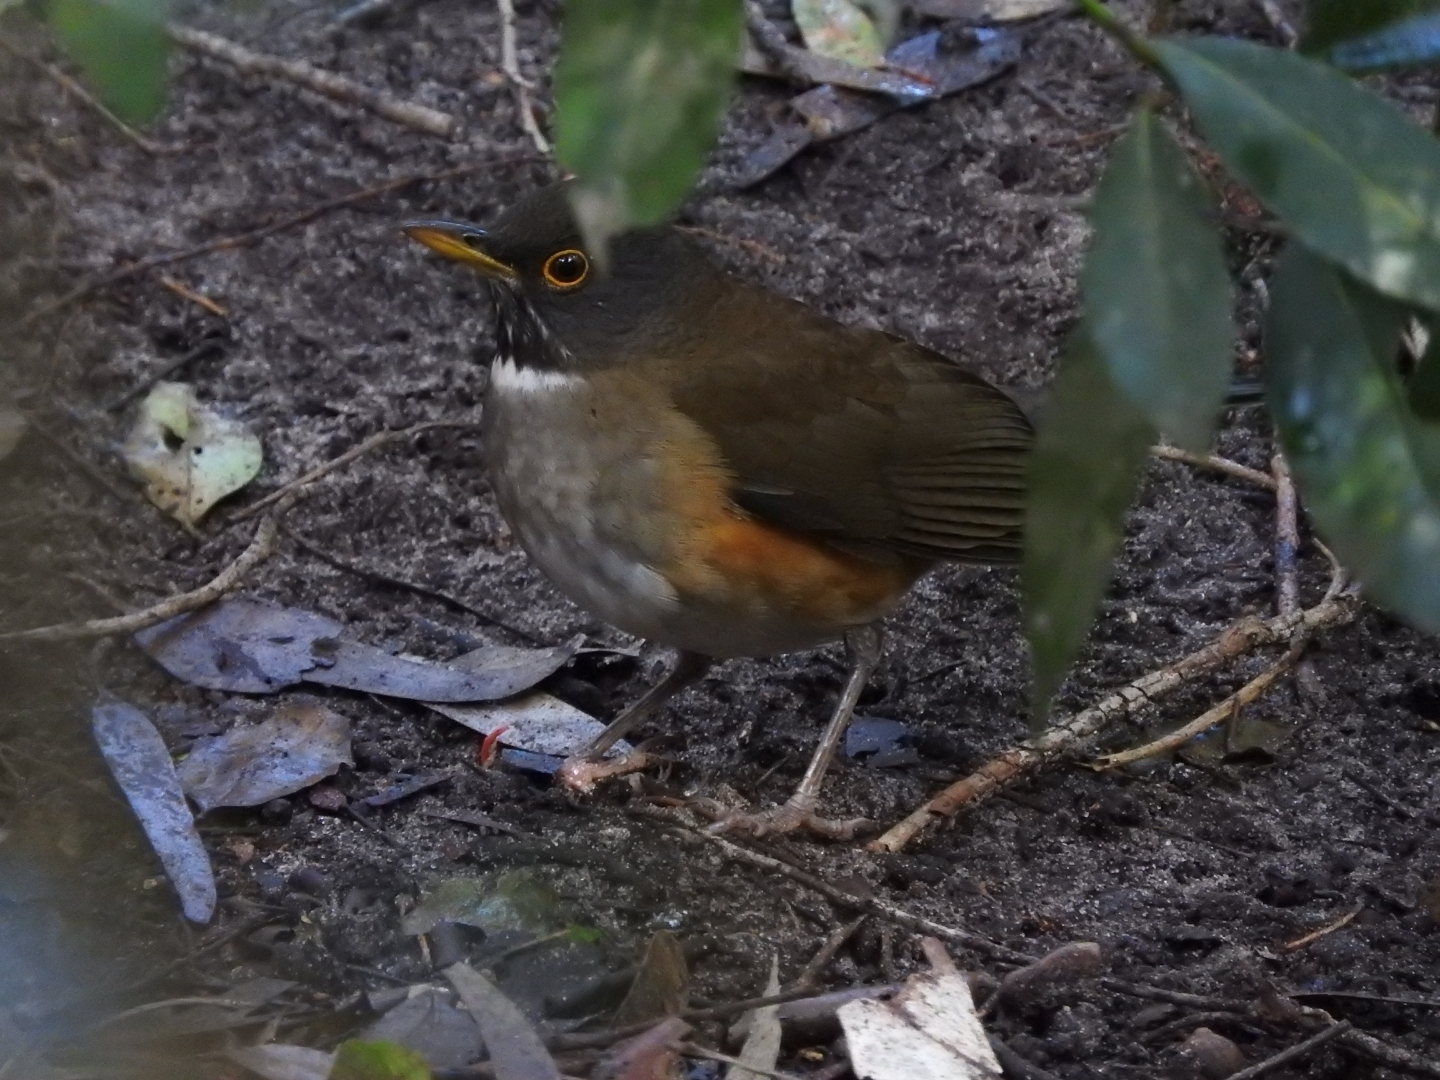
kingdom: Animalia
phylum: Chordata
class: Aves
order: Passeriformes
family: Turdidae
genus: Turdus
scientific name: Turdus albicollis
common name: White-necked thrush
